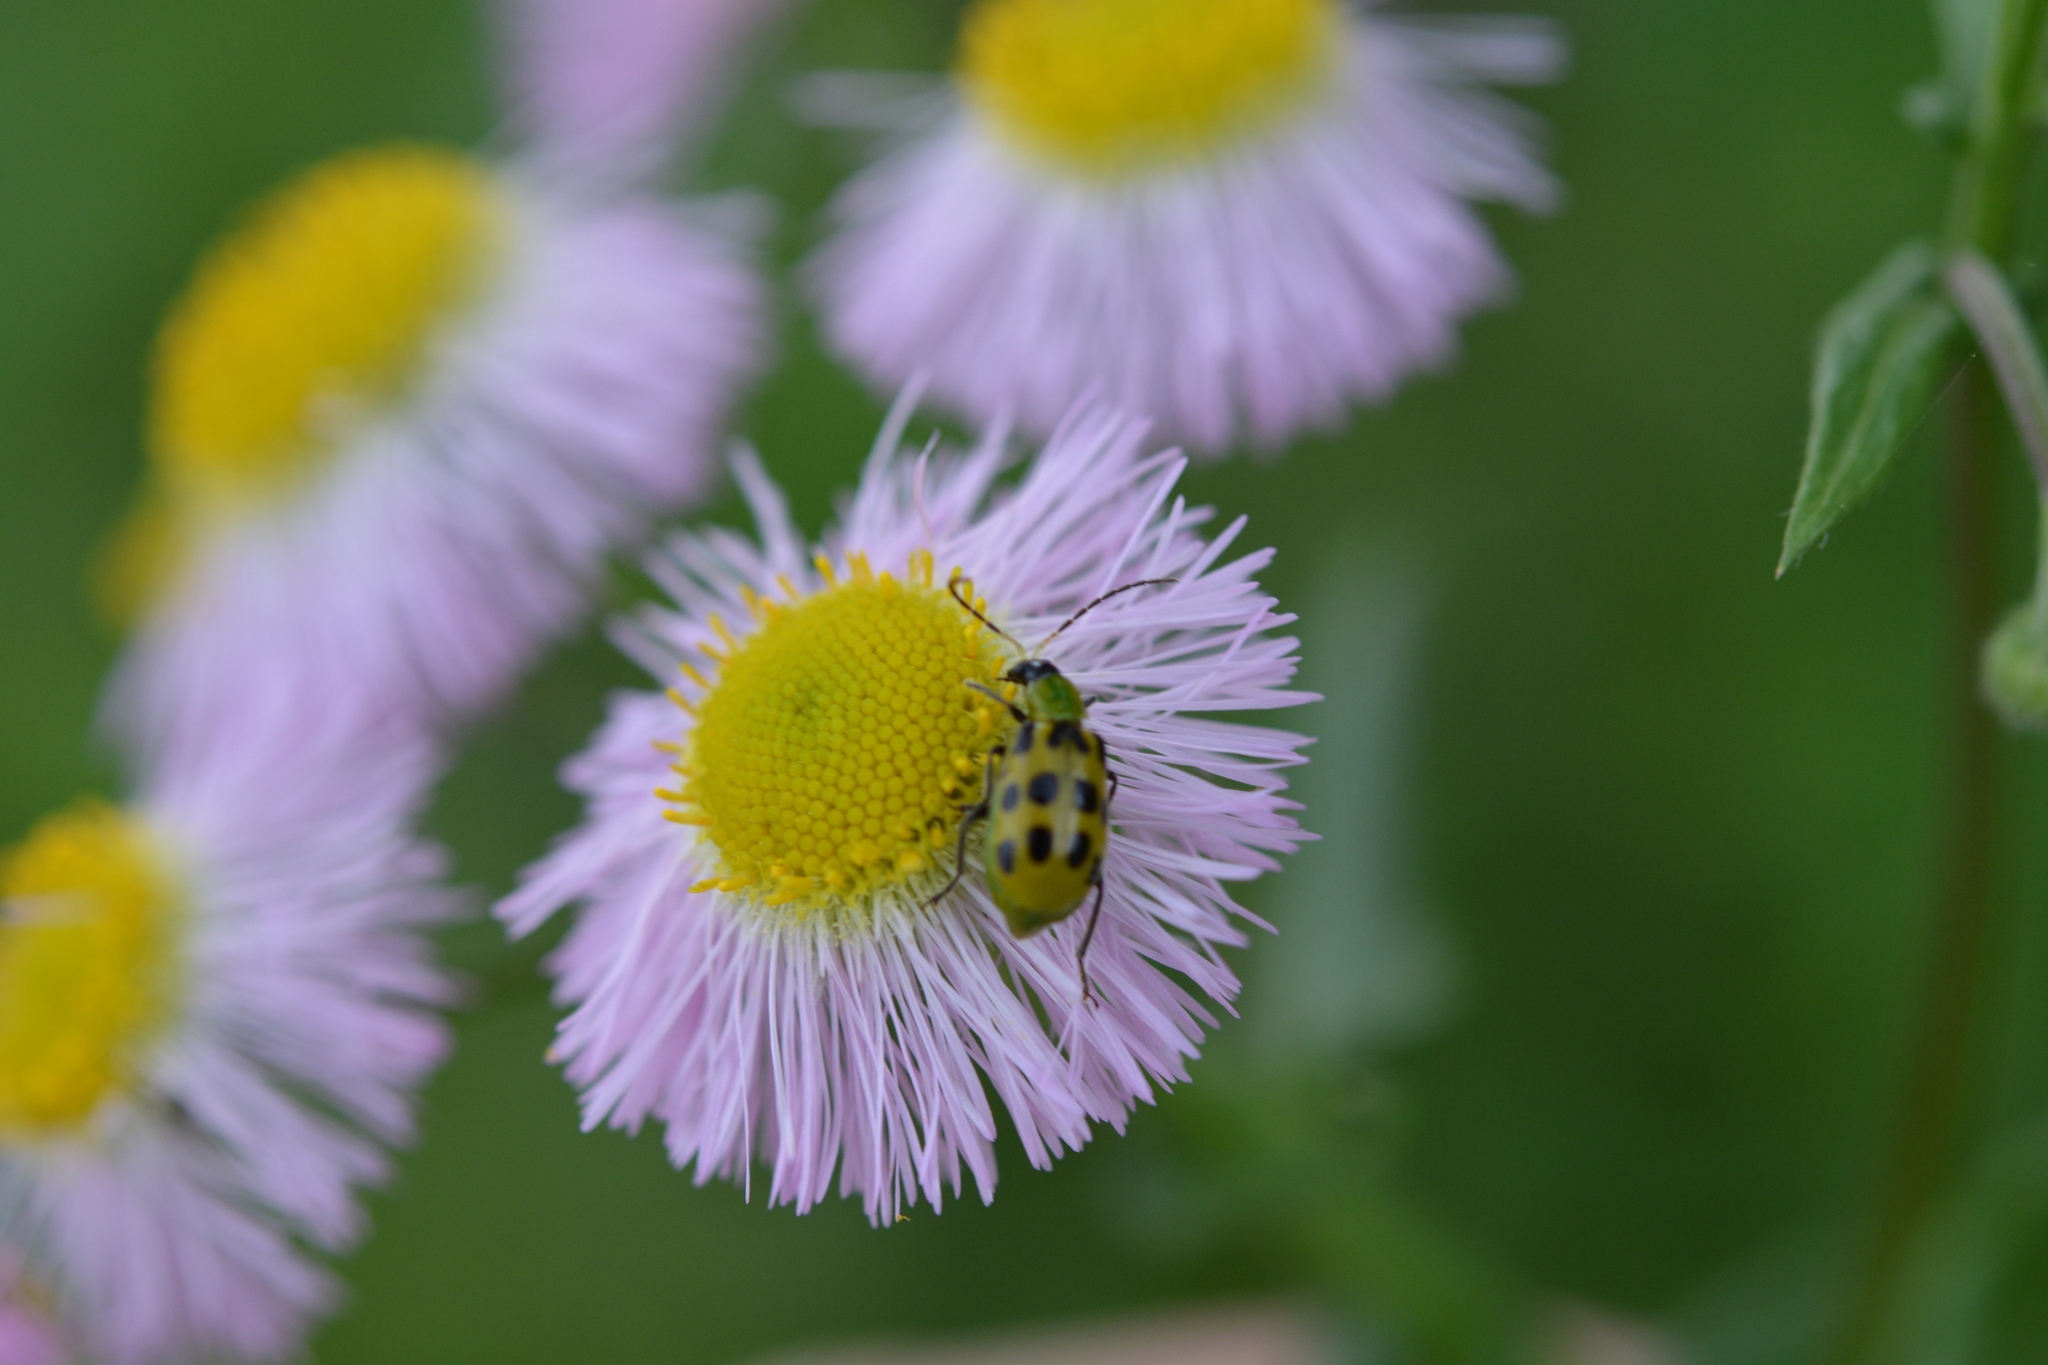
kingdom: Animalia
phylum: Arthropoda
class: Insecta
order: Coleoptera
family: Chrysomelidae
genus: Diabrotica
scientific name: Diabrotica undecimpunctata
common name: Spotted cucumber beetle
